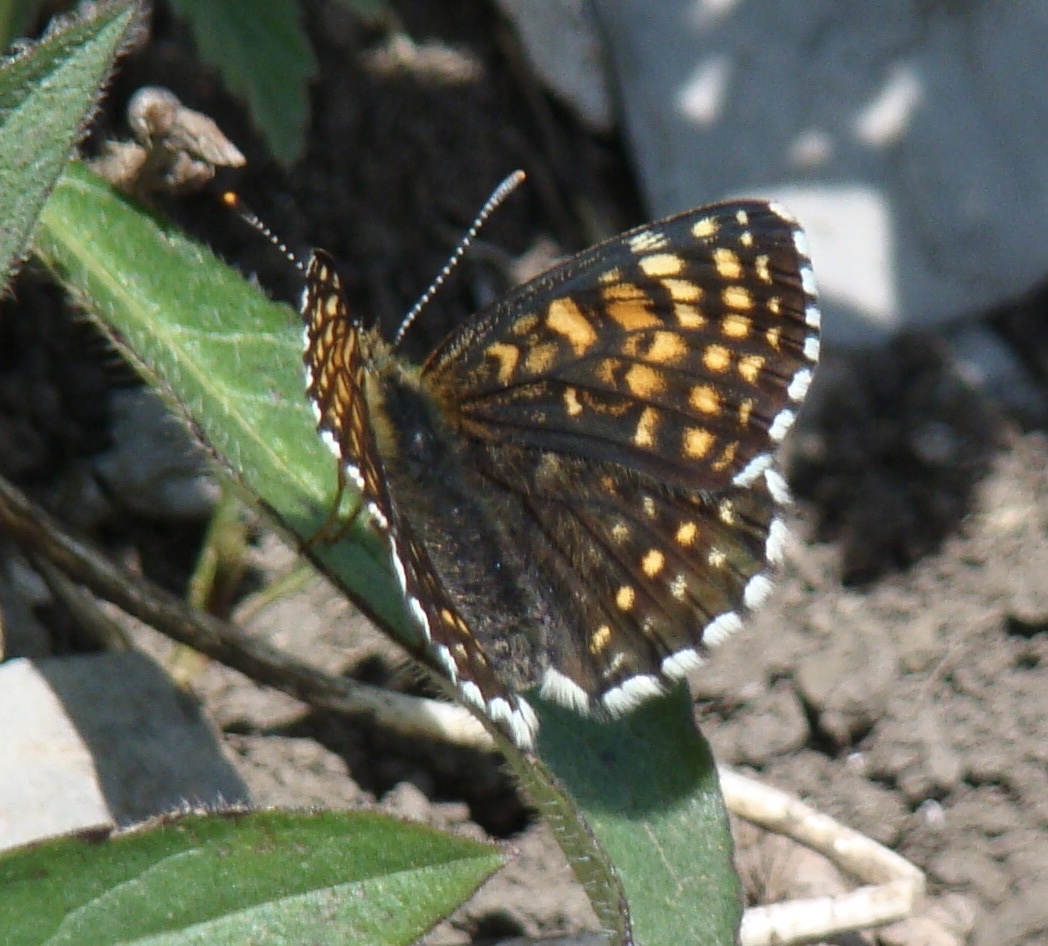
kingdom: Animalia
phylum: Arthropoda
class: Insecta
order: Lepidoptera
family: Nymphalidae
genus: Melitaea
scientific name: Melitaea diamina
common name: False heath fritillary
